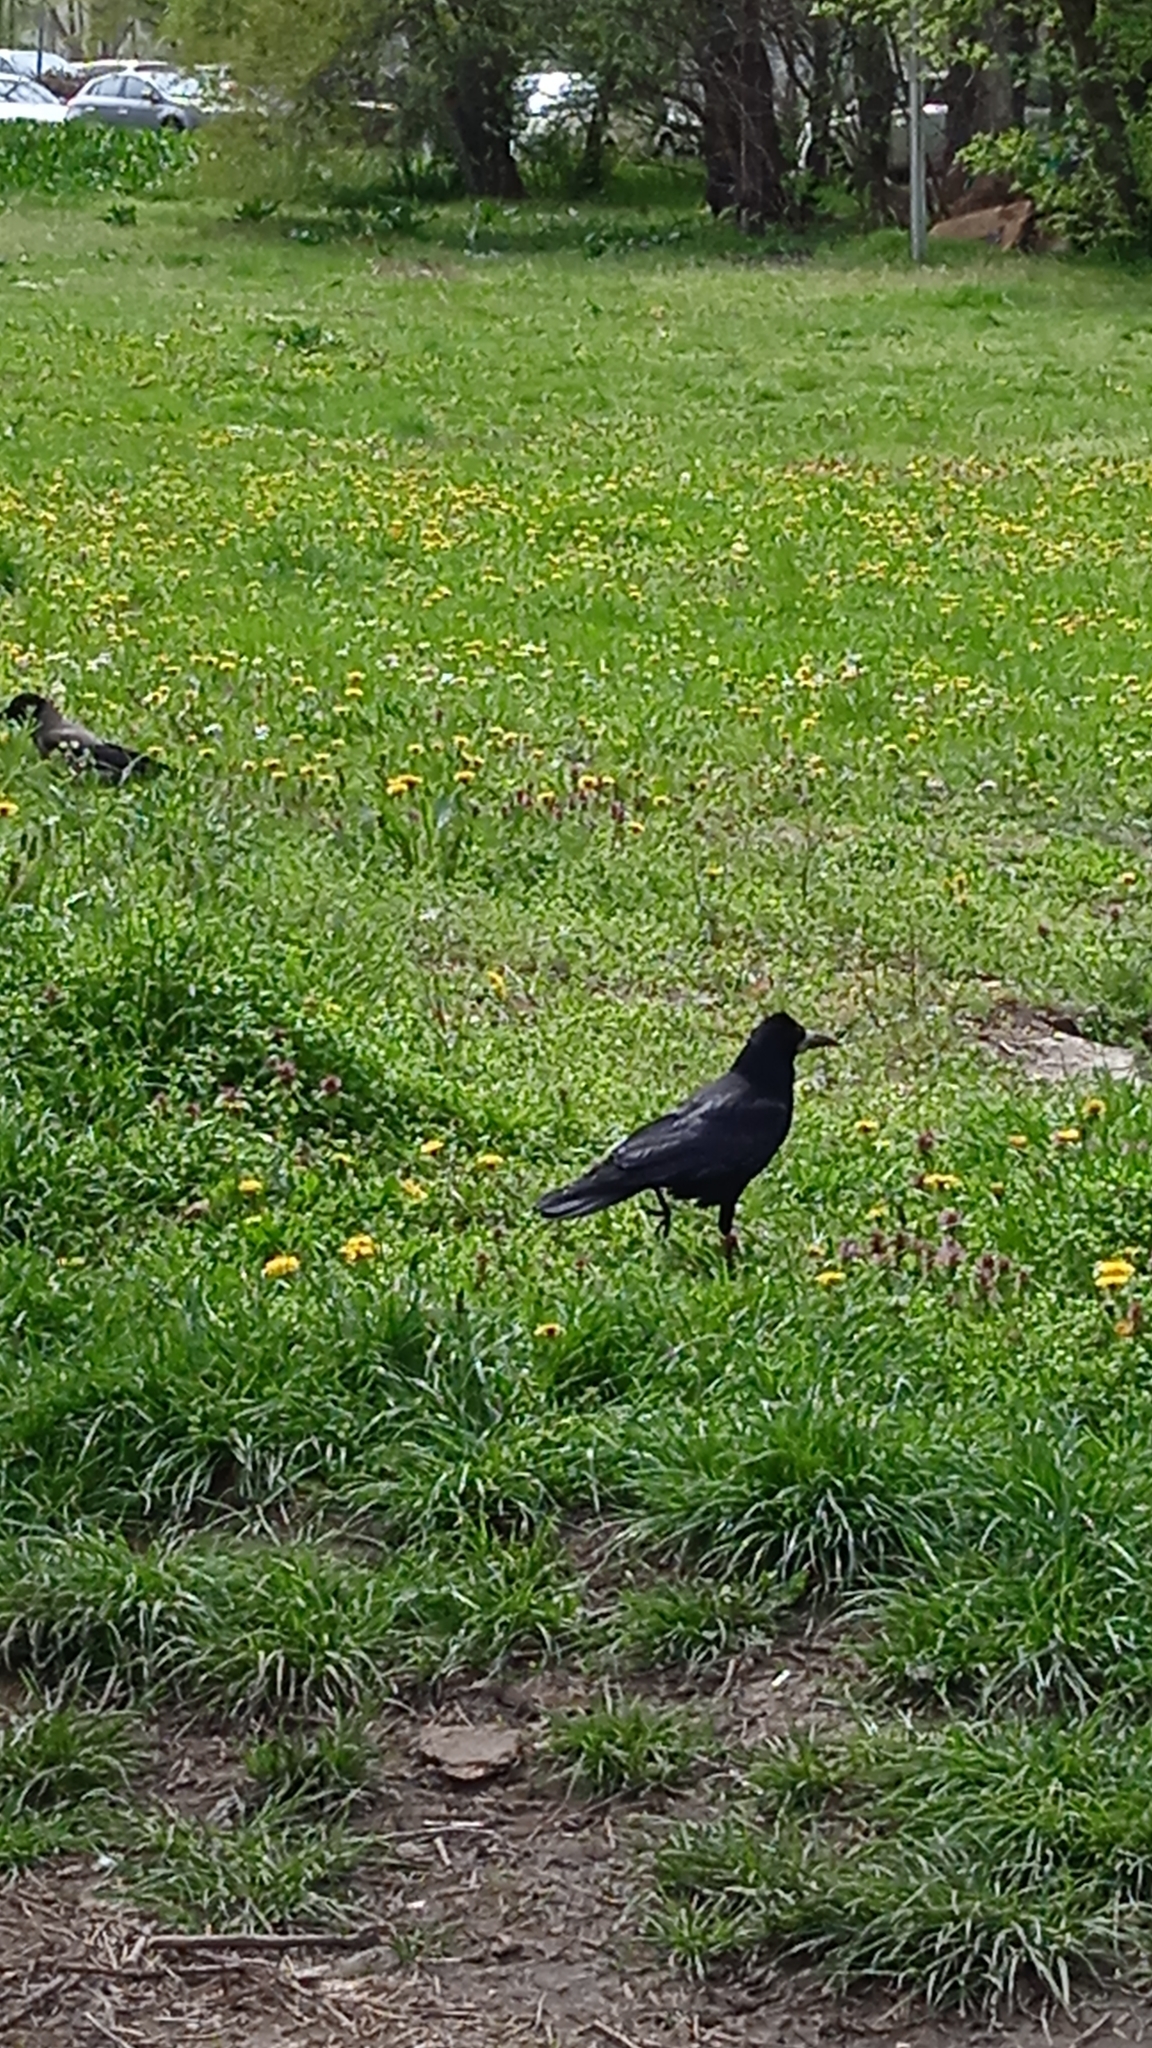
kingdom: Animalia
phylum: Chordata
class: Aves
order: Passeriformes
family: Corvidae
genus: Corvus
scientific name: Corvus frugilegus
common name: Rook
